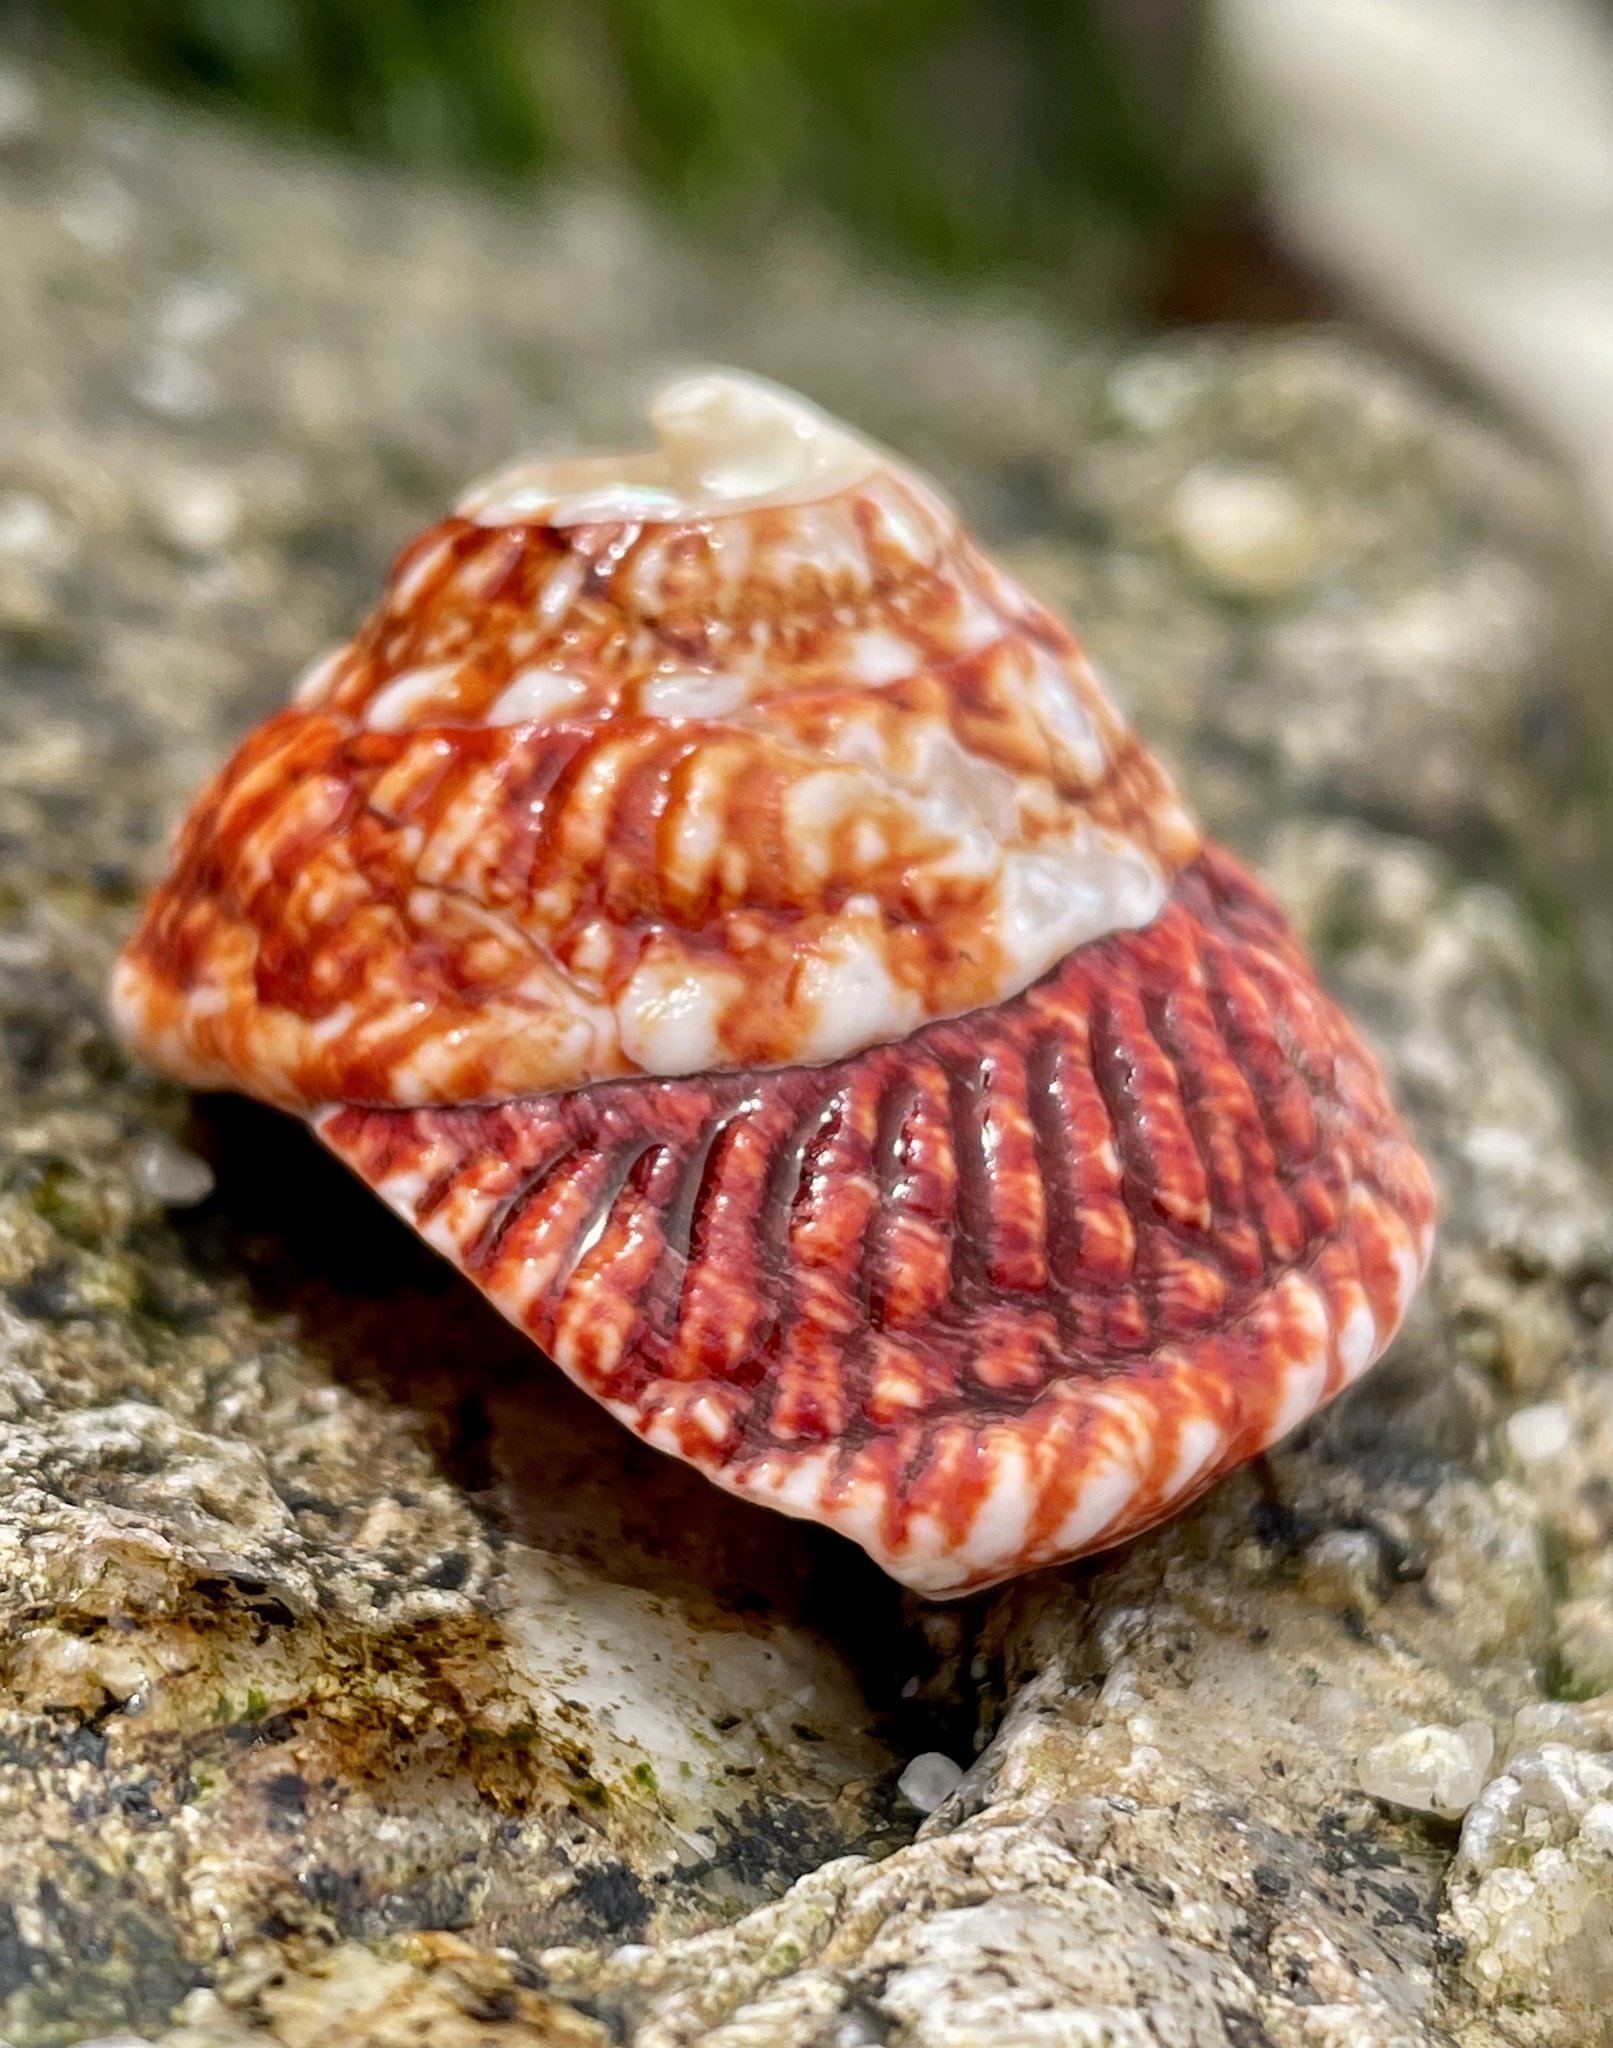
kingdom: Animalia
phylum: Mollusca
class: Gastropoda
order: Trochida
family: Turbinidae
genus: Pomaulax
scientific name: Pomaulax gibberosus
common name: Red turban
